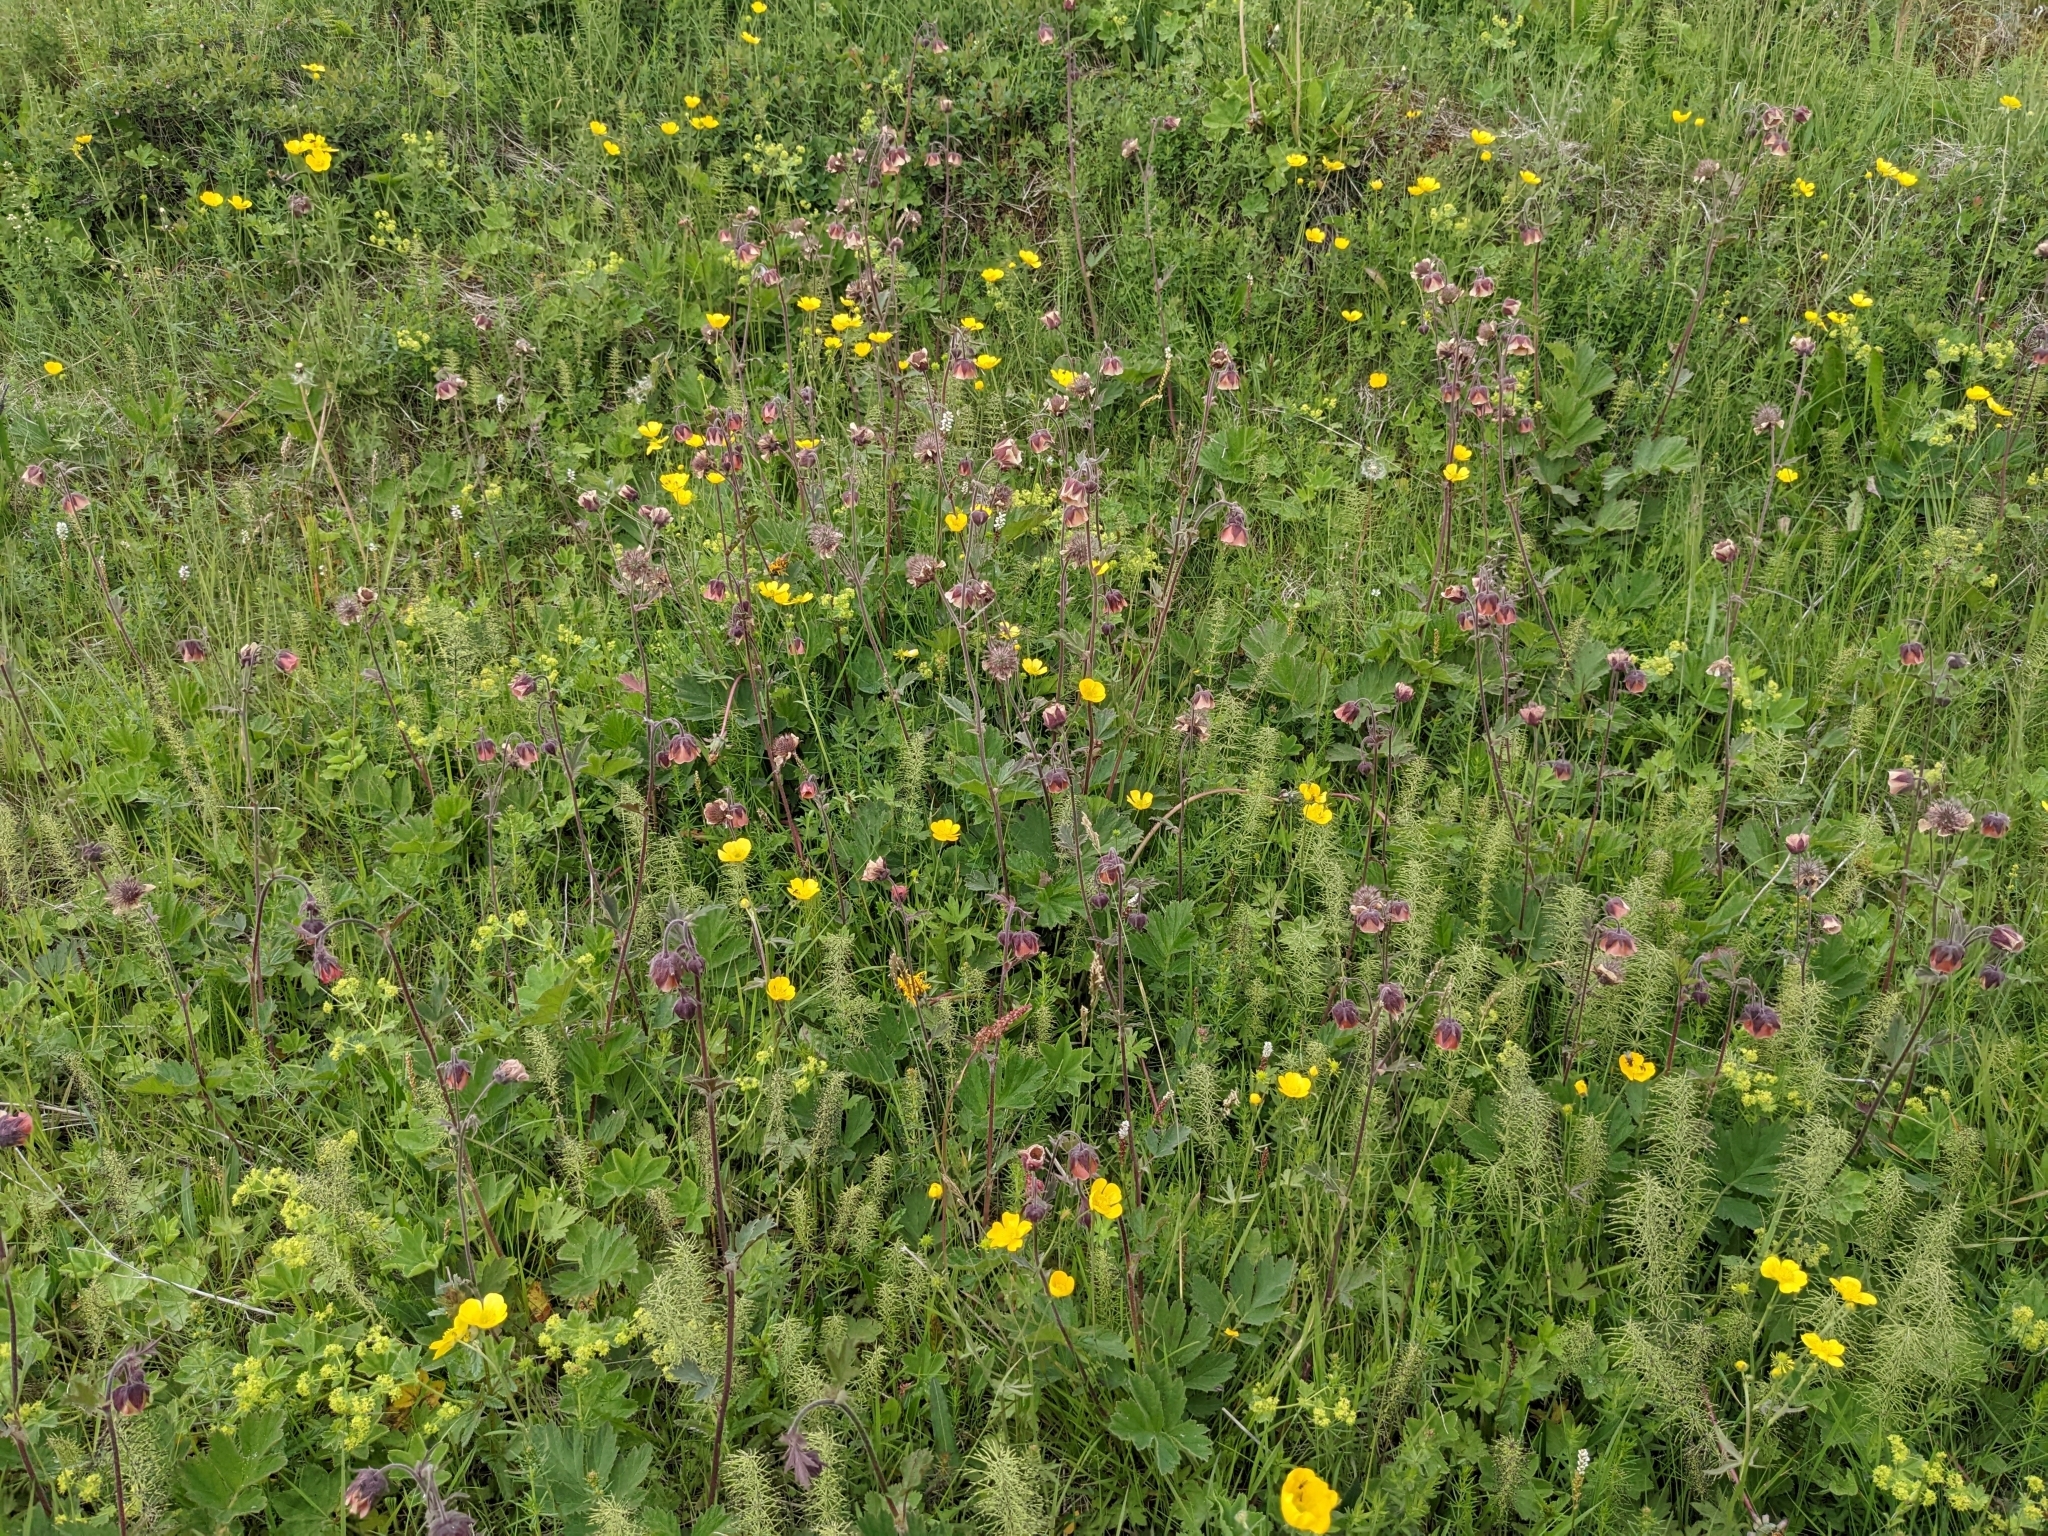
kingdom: Plantae
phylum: Tracheophyta
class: Magnoliopsida
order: Rosales
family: Rosaceae
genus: Geum
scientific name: Geum rivale
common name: Water avens
